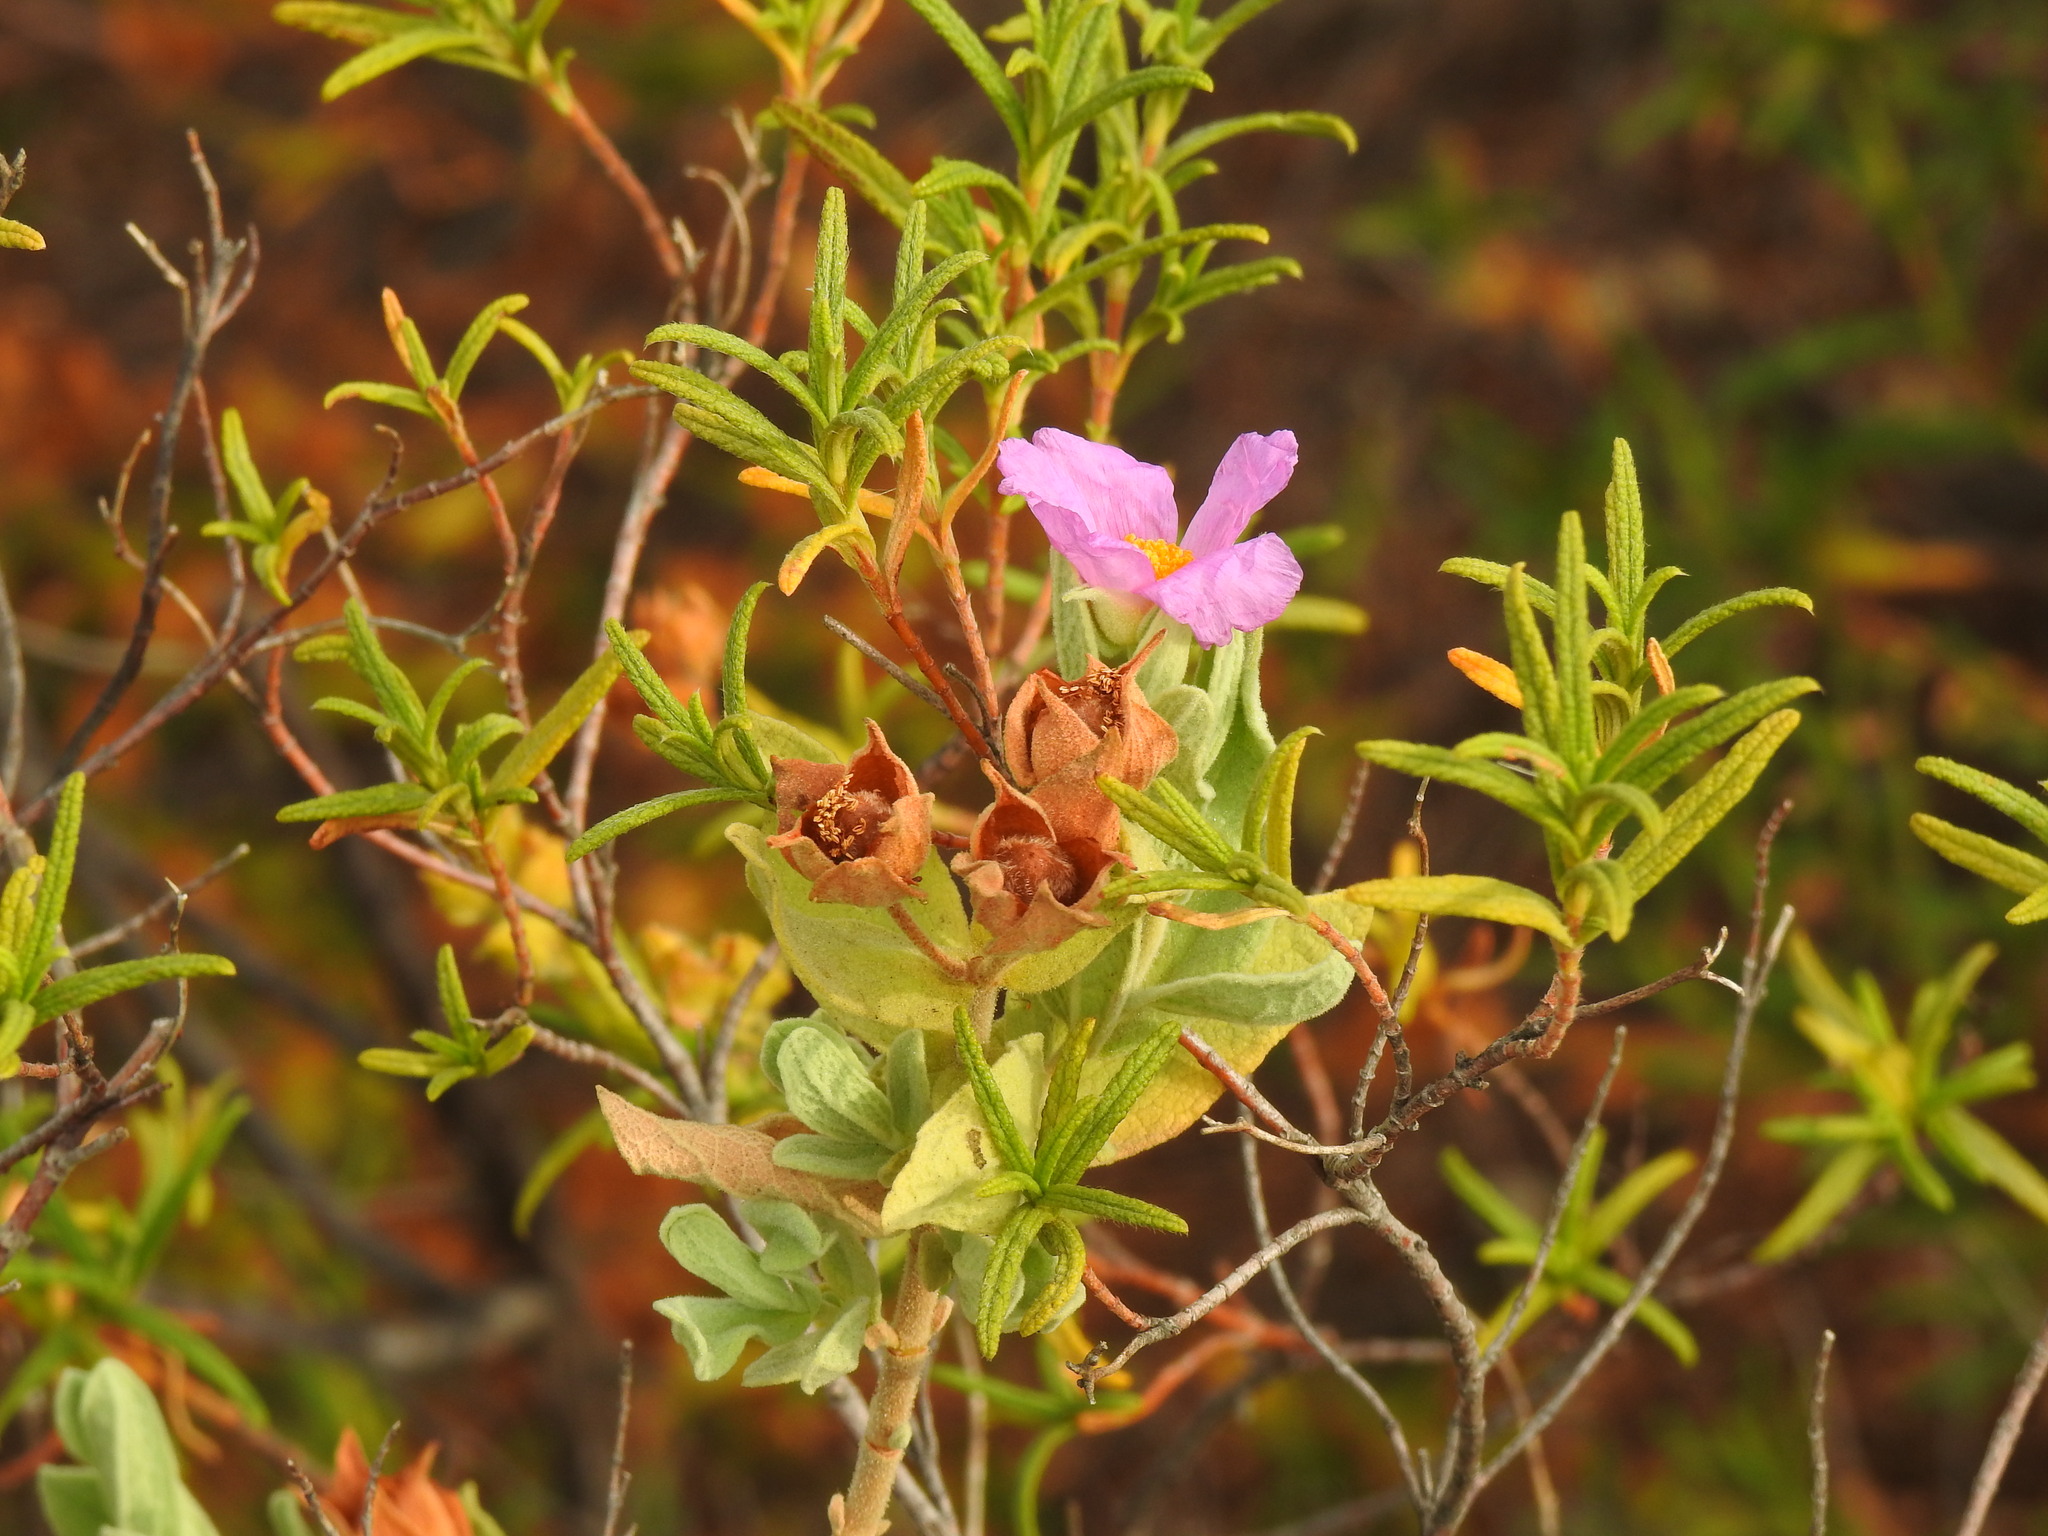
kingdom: Plantae
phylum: Tracheophyta
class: Magnoliopsida
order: Malvales
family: Cistaceae
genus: Cistus
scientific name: Cistus albidus
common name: White-leaf rock-rose
